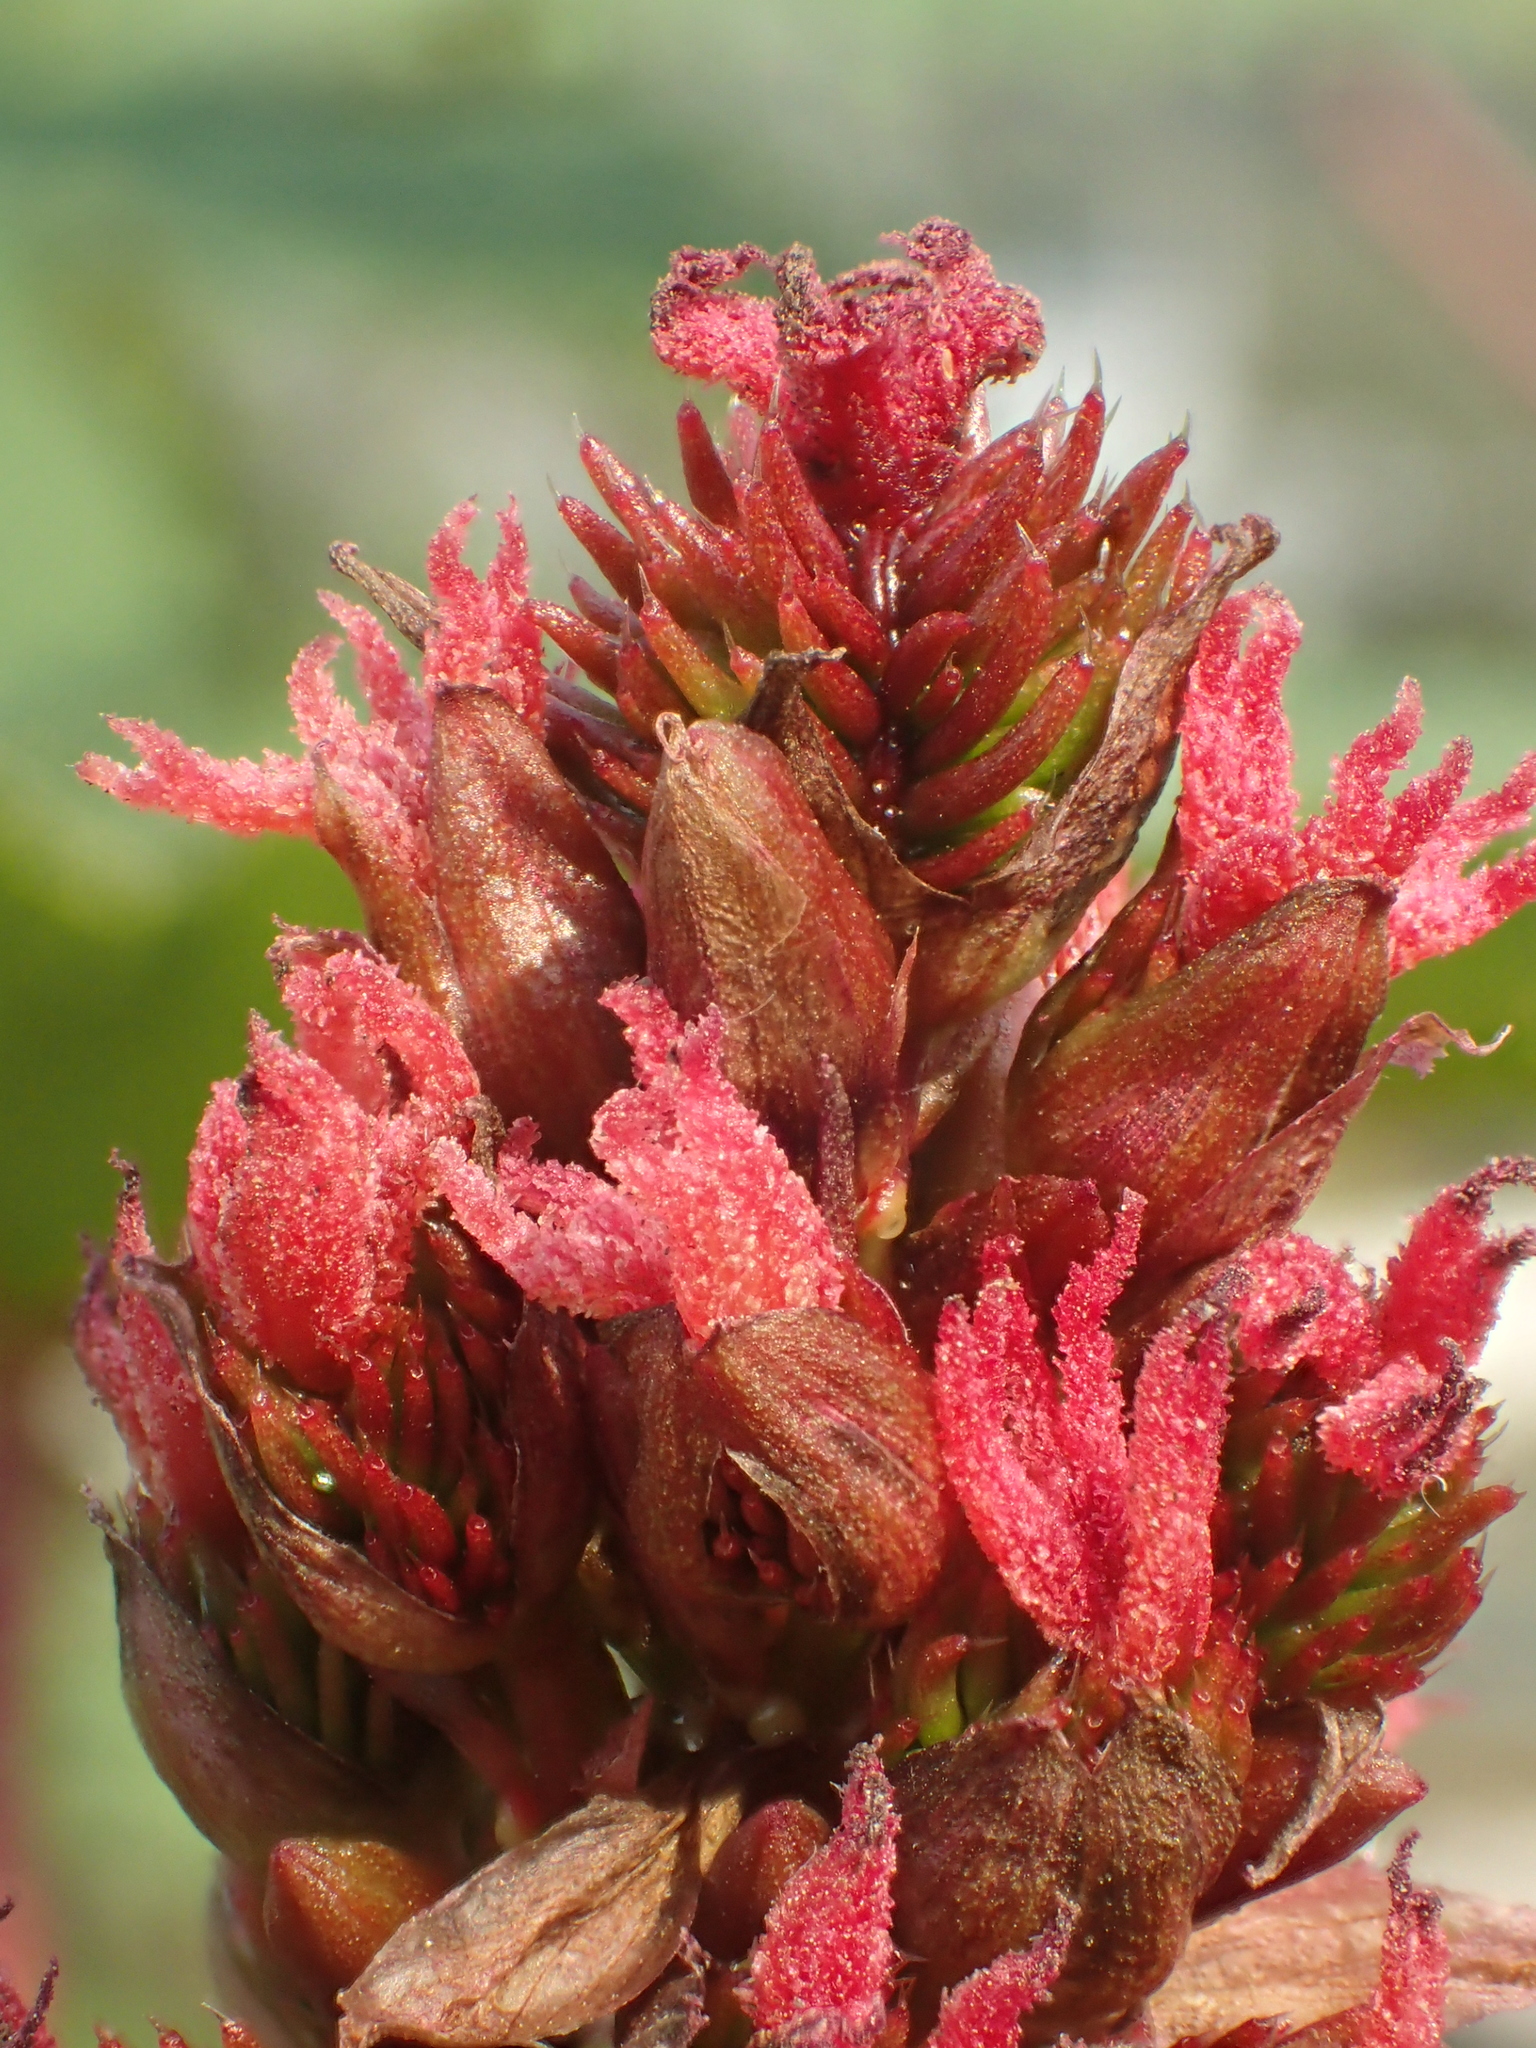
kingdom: Plantae
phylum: Tracheophyta
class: Magnoliopsida
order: Malpighiales
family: Euphorbiaceae
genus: Ricinus
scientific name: Ricinus communis
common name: Castor-oil-plant
